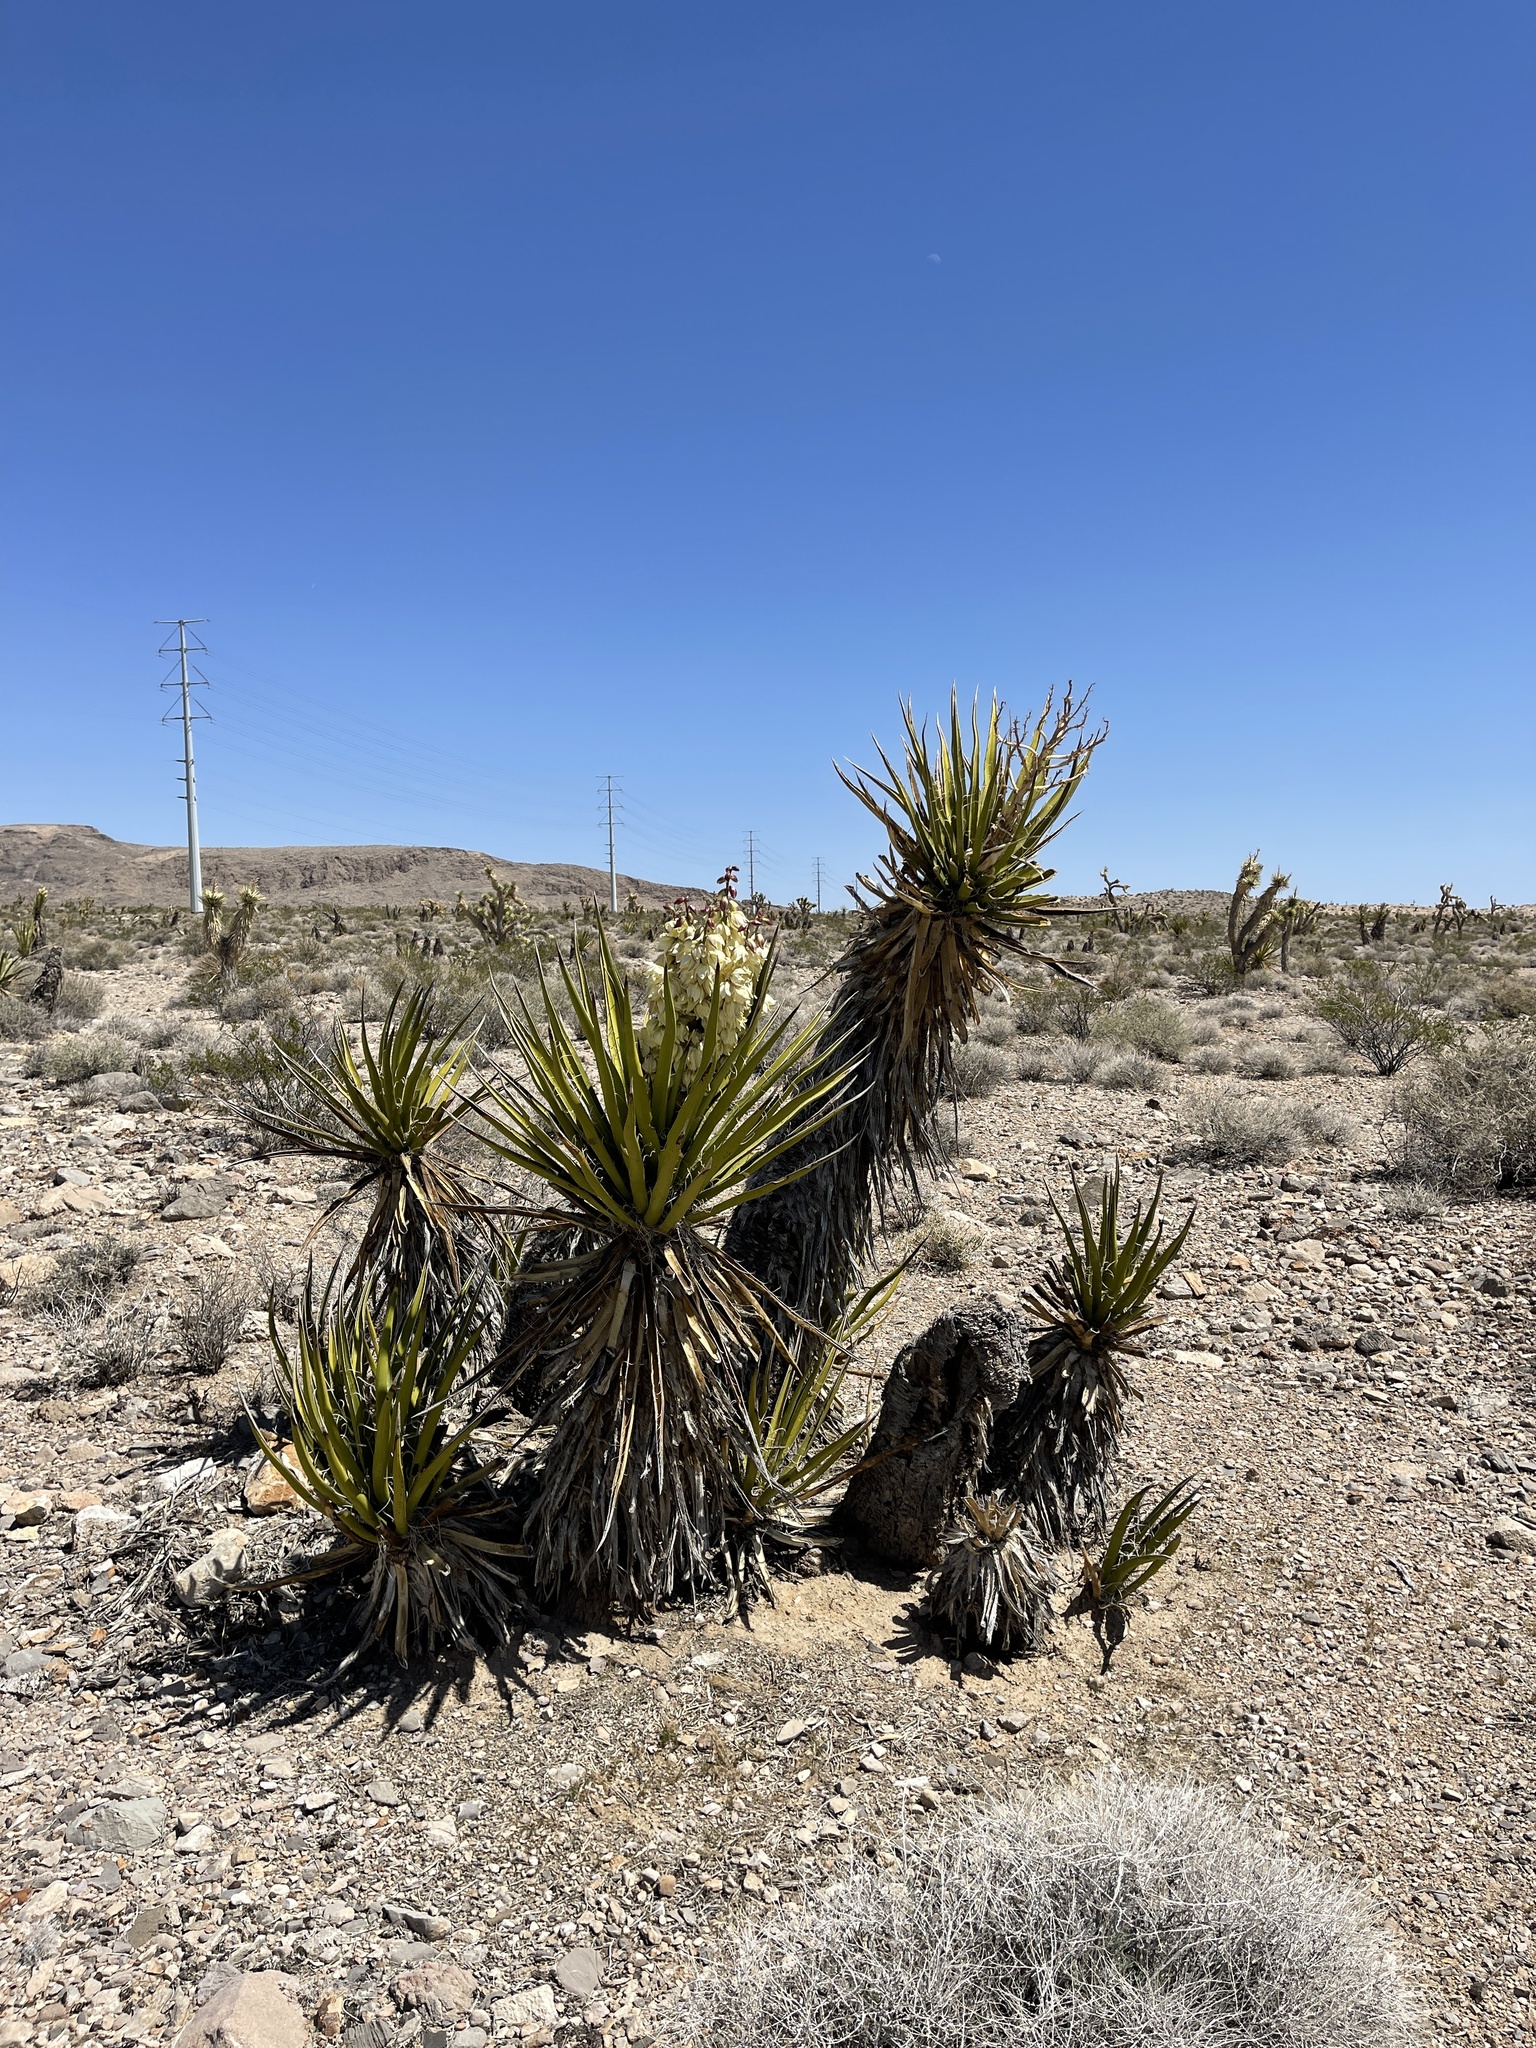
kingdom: Plantae
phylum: Tracheophyta
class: Liliopsida
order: Asparagales
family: Asparagaceae
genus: Yucca
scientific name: Yucca schidigera
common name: Mojave yucca
